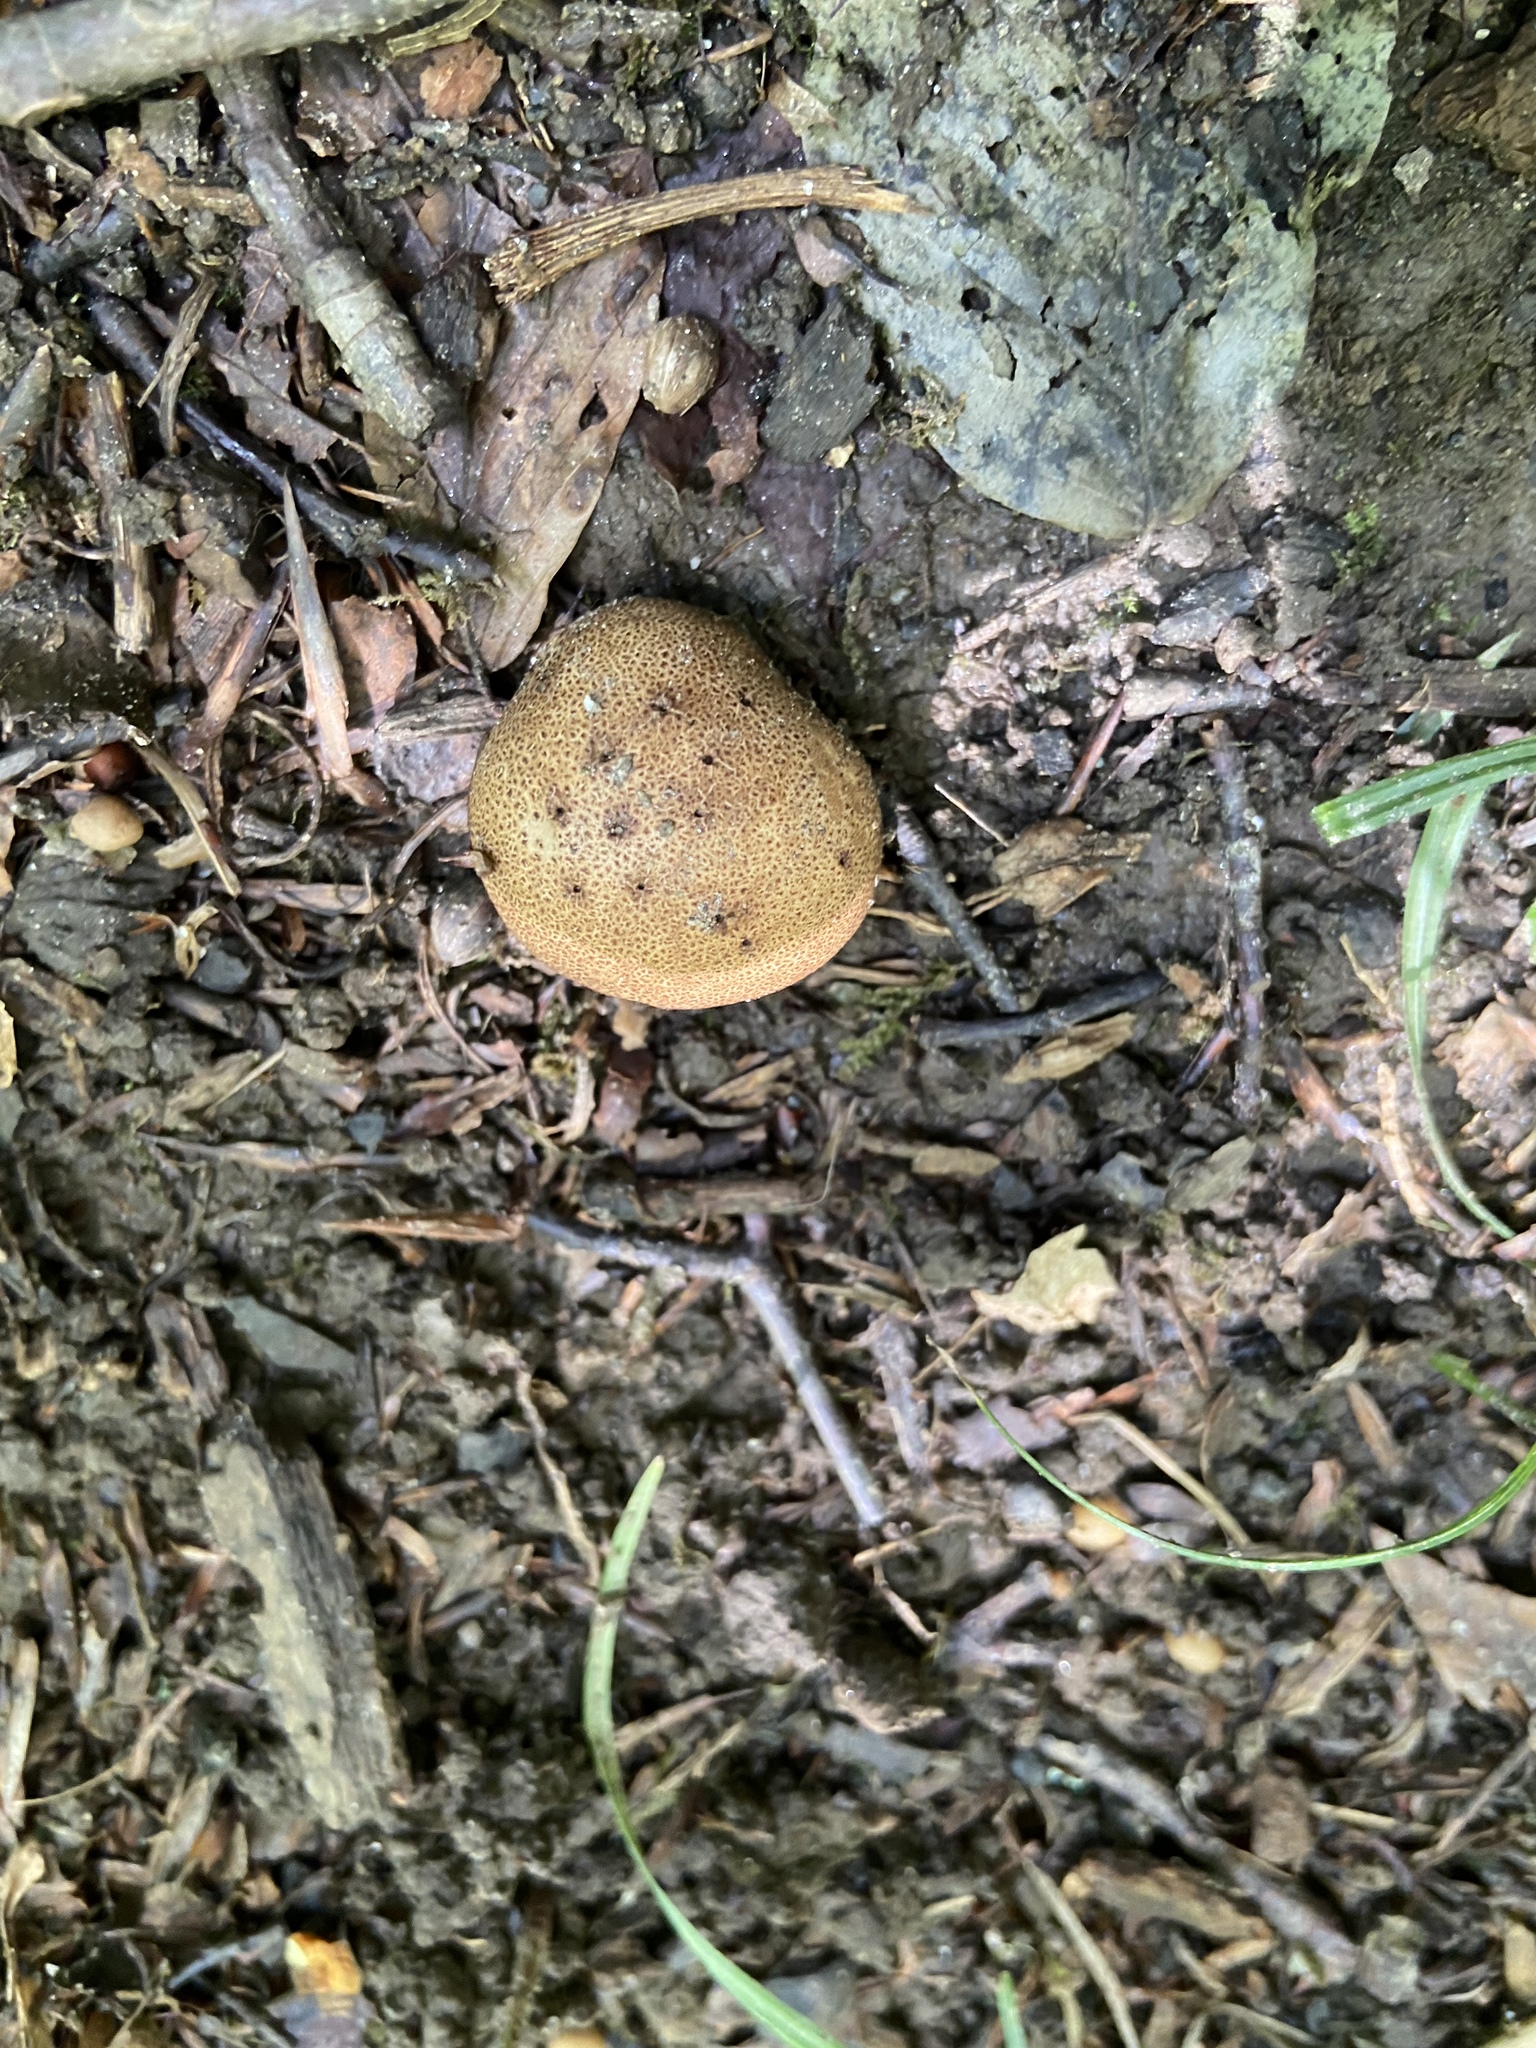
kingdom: Fungi
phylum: Basidiomycota
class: Agaricomycetes
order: Boletales
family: Sclerodermataceae
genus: Scleroderma
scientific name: Scleroderma citrinum
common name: Common earthball
